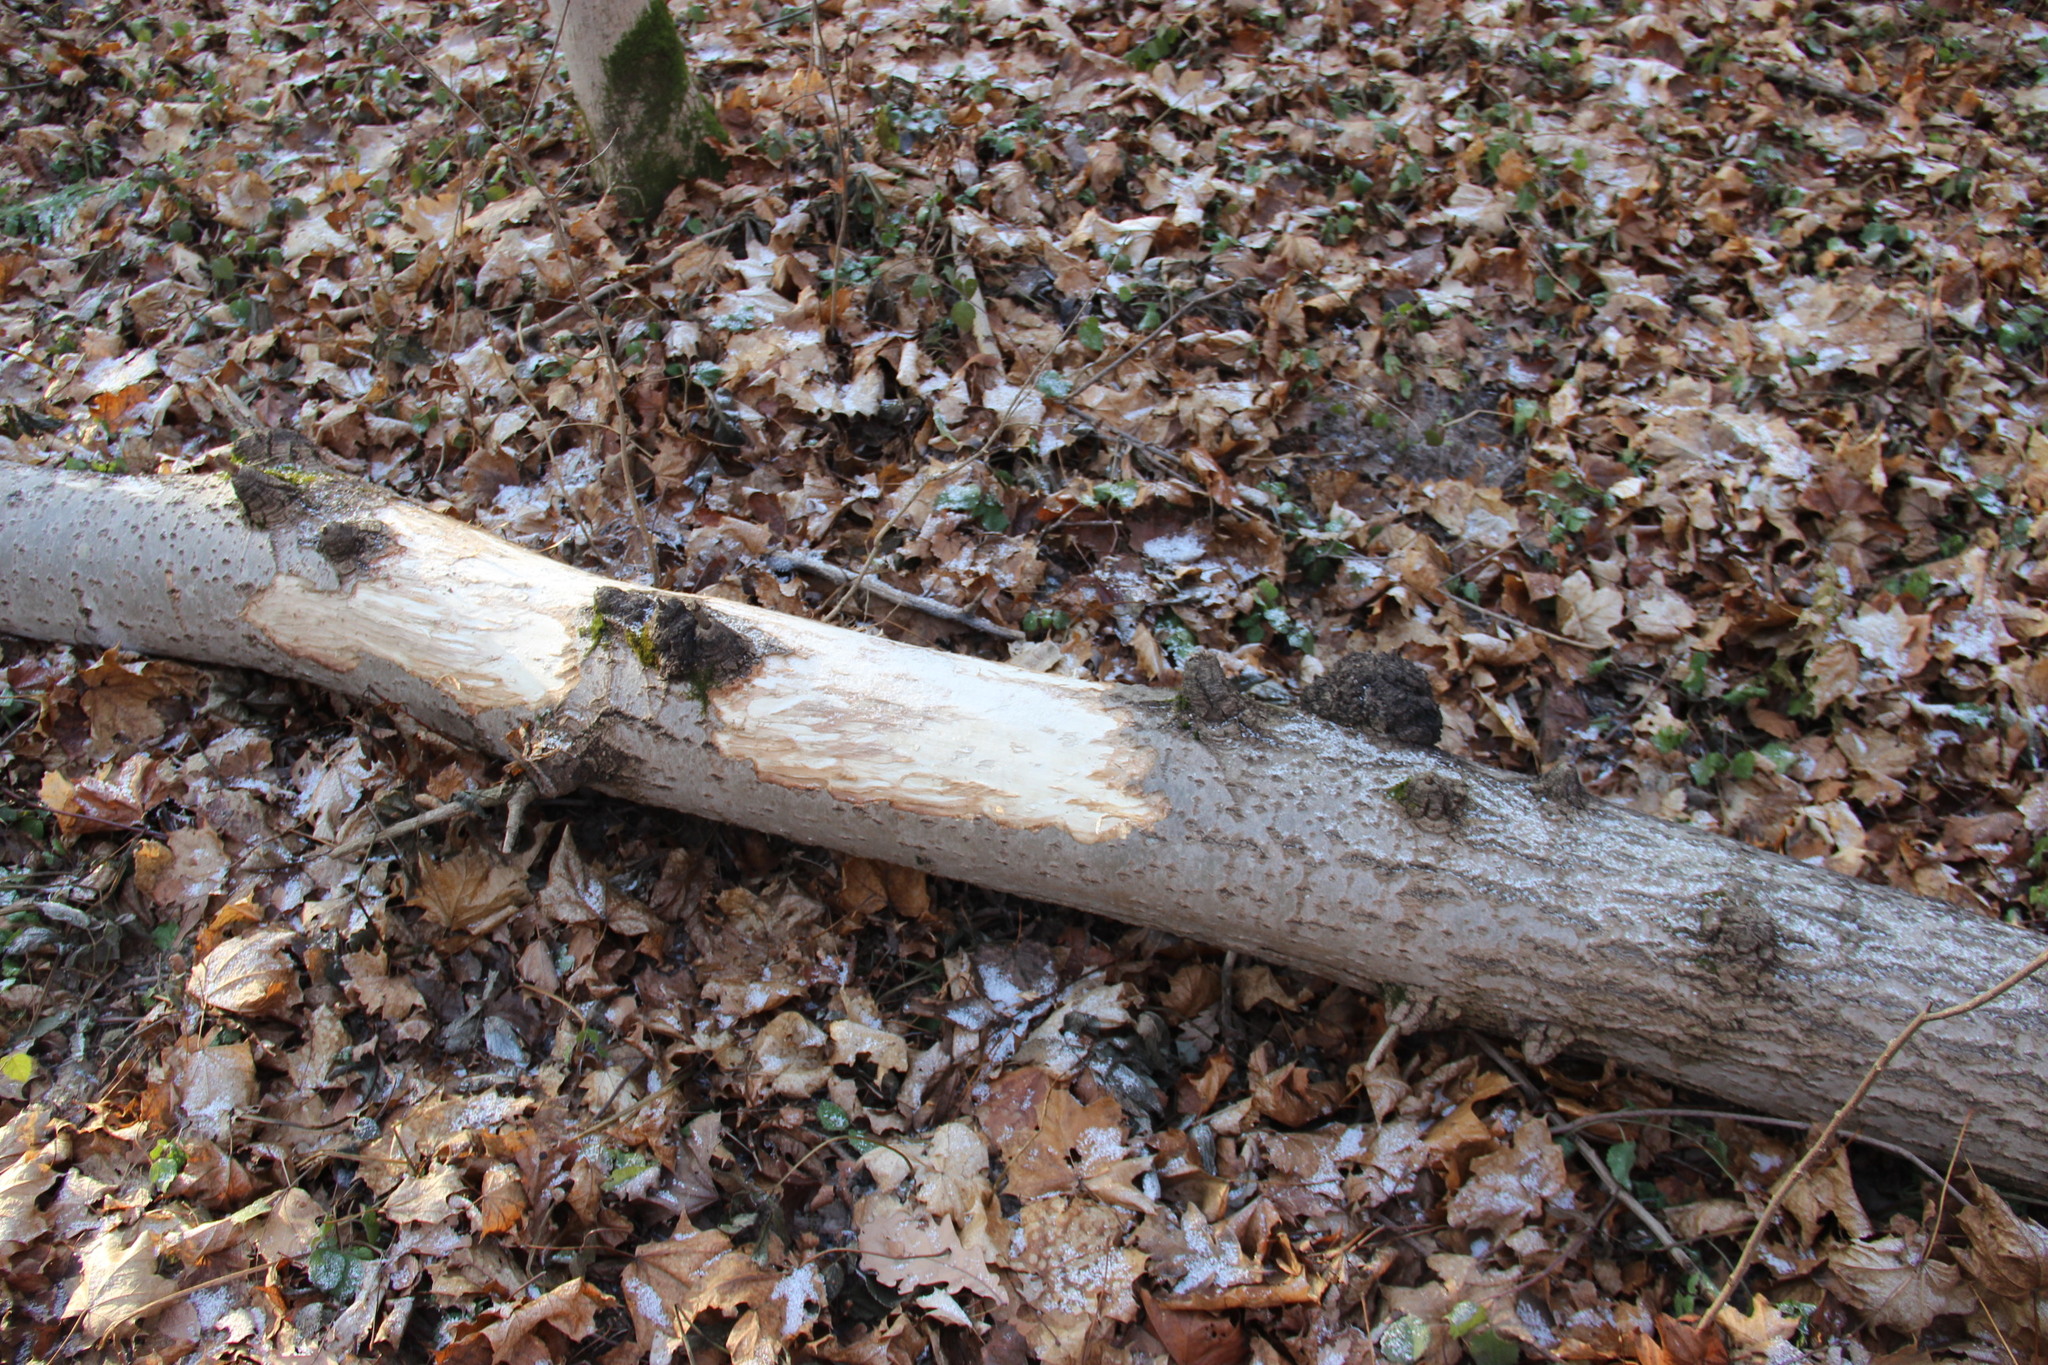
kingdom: Animalia
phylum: Chordata
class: Mammalia
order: Artiodactyla
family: Cervidae
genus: Alces
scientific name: Alces alces
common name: Moose
